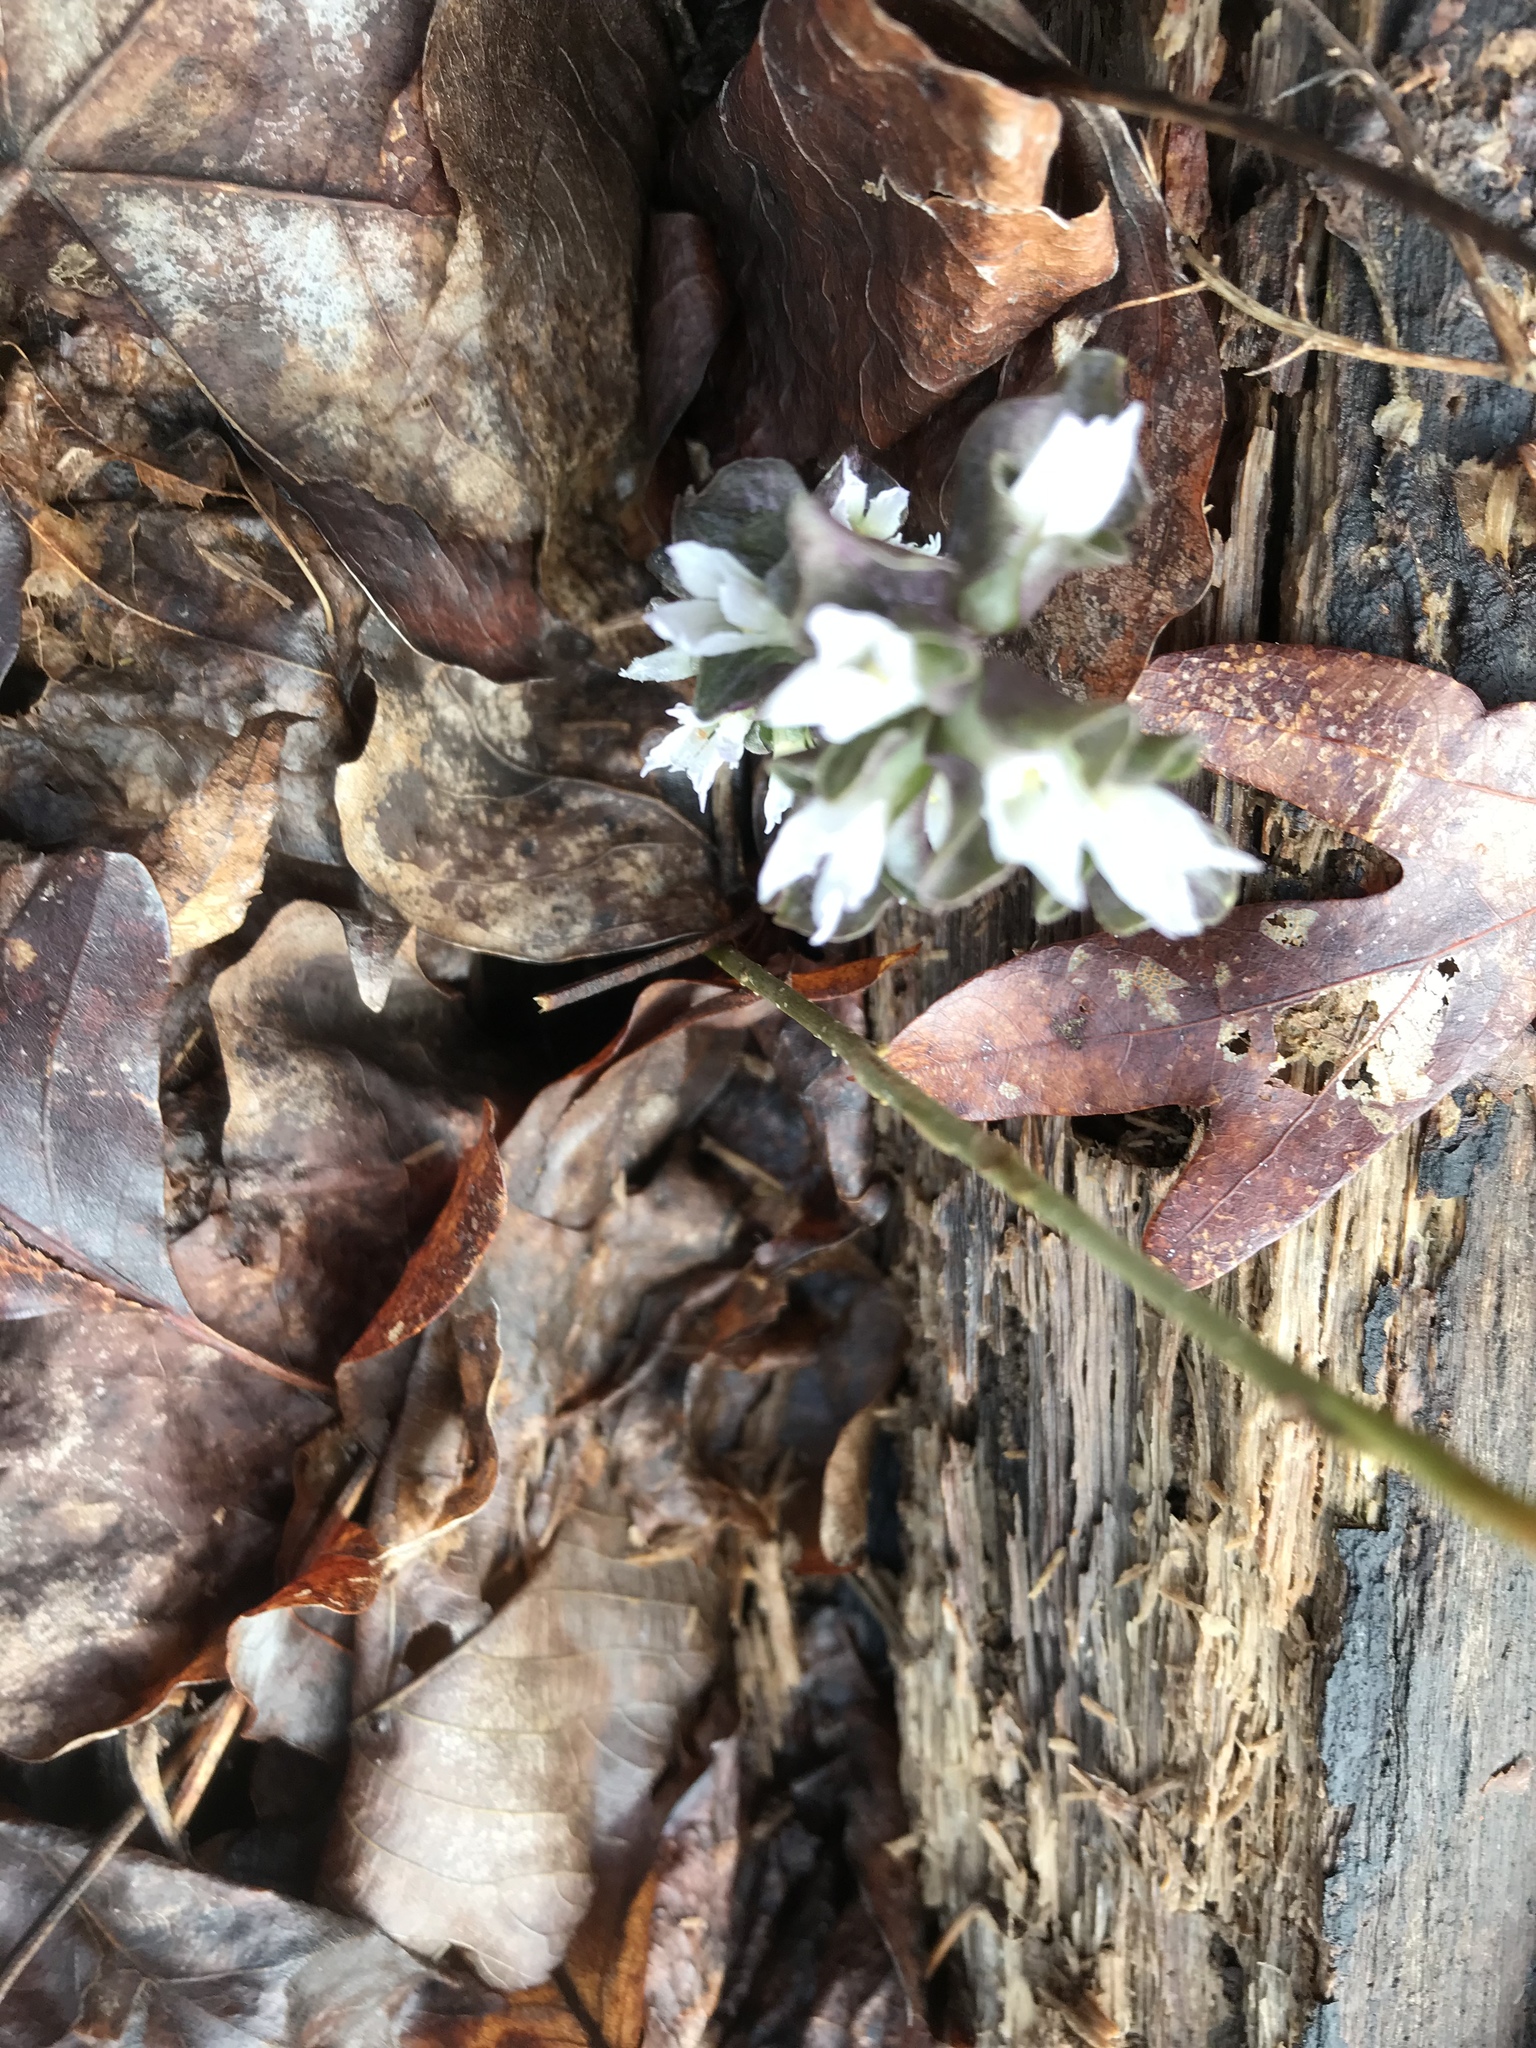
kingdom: Plantae
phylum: Tracheophyta
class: Magnoliopsida
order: Gentianales
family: Gentianaceae
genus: Obolaria
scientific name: Obolaria virginica
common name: Pennywort
